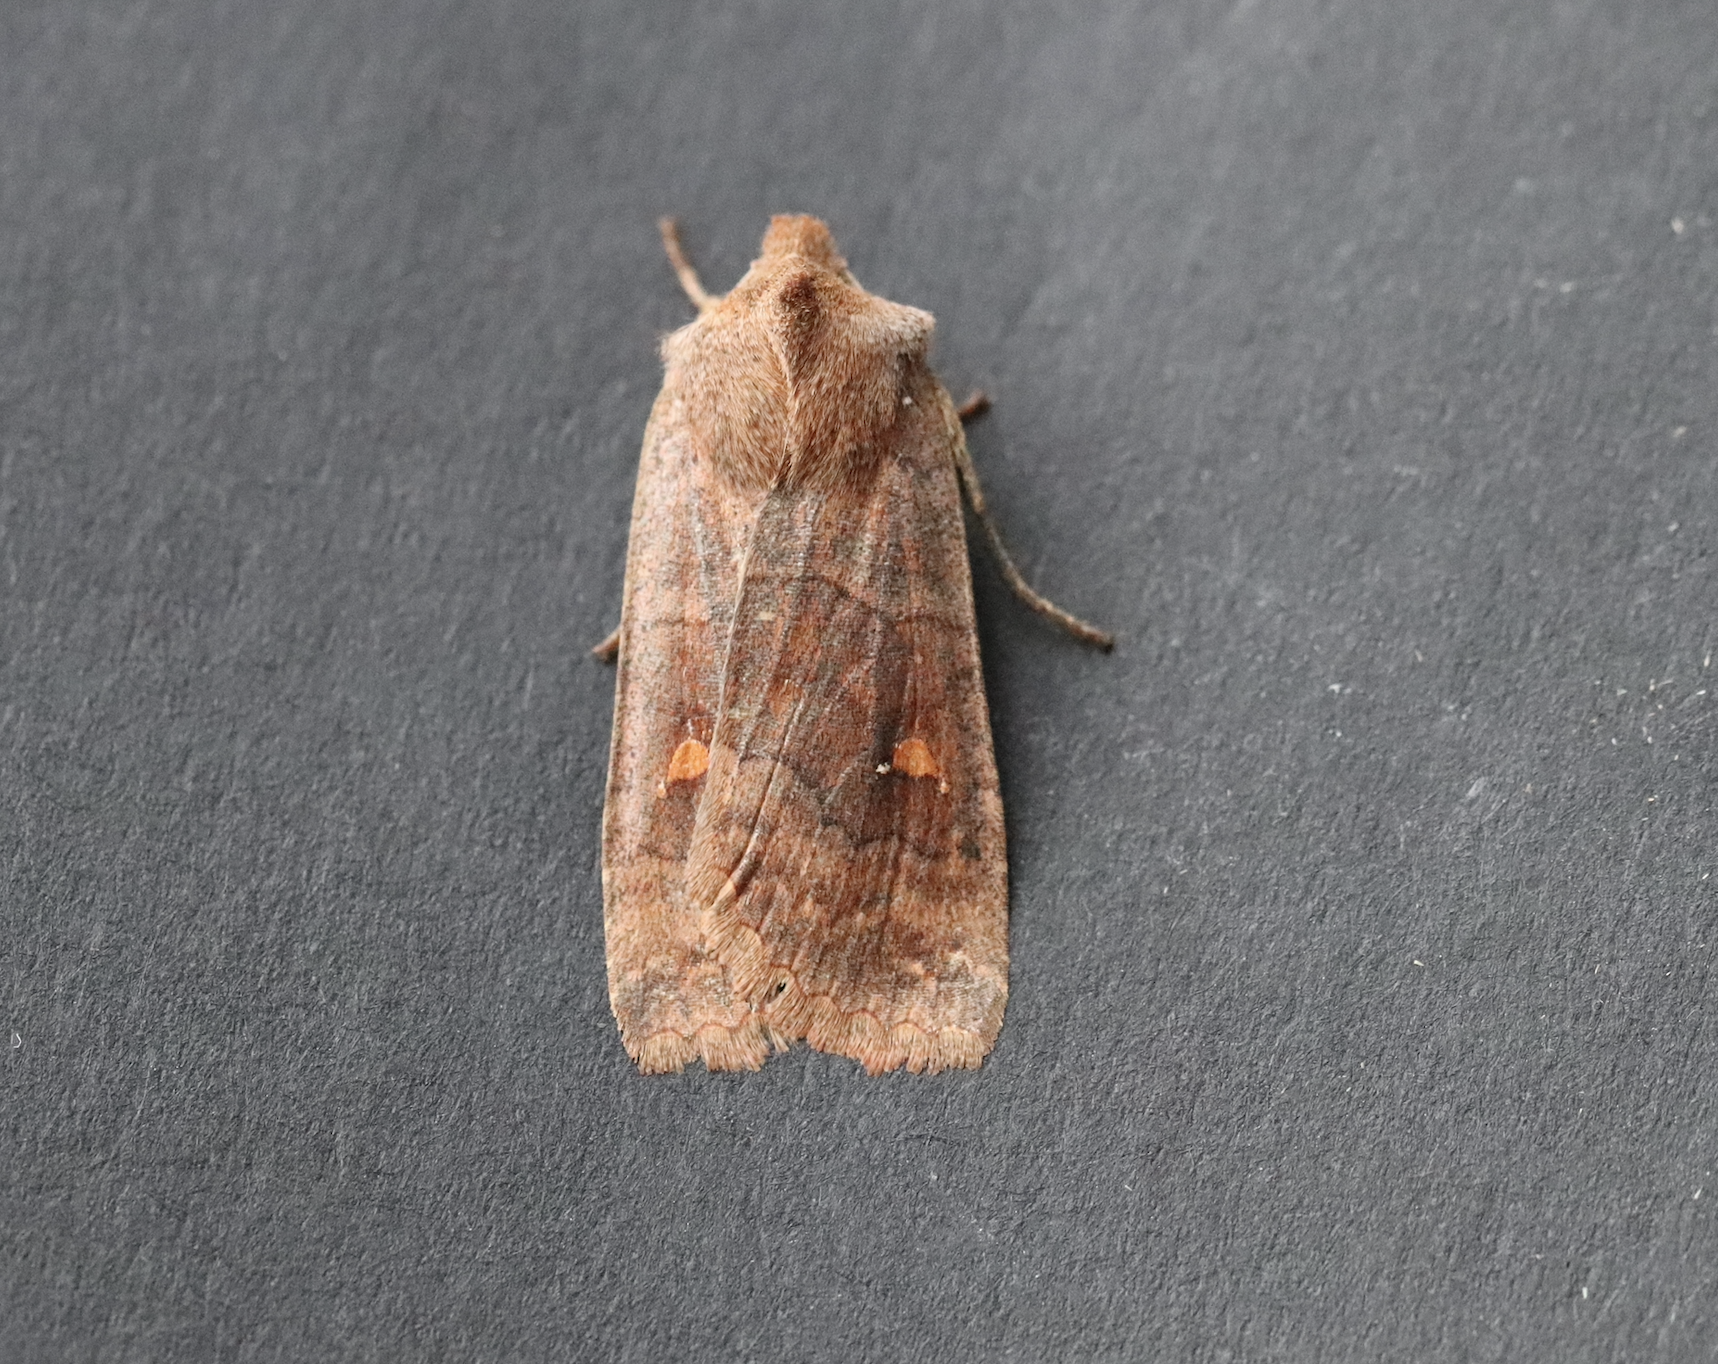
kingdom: Animalia
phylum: Arthropoda
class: Insecta
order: Lepidoptera
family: Noctuidae
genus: Eupsilia
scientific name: Eupsilia transversa
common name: Satellite
